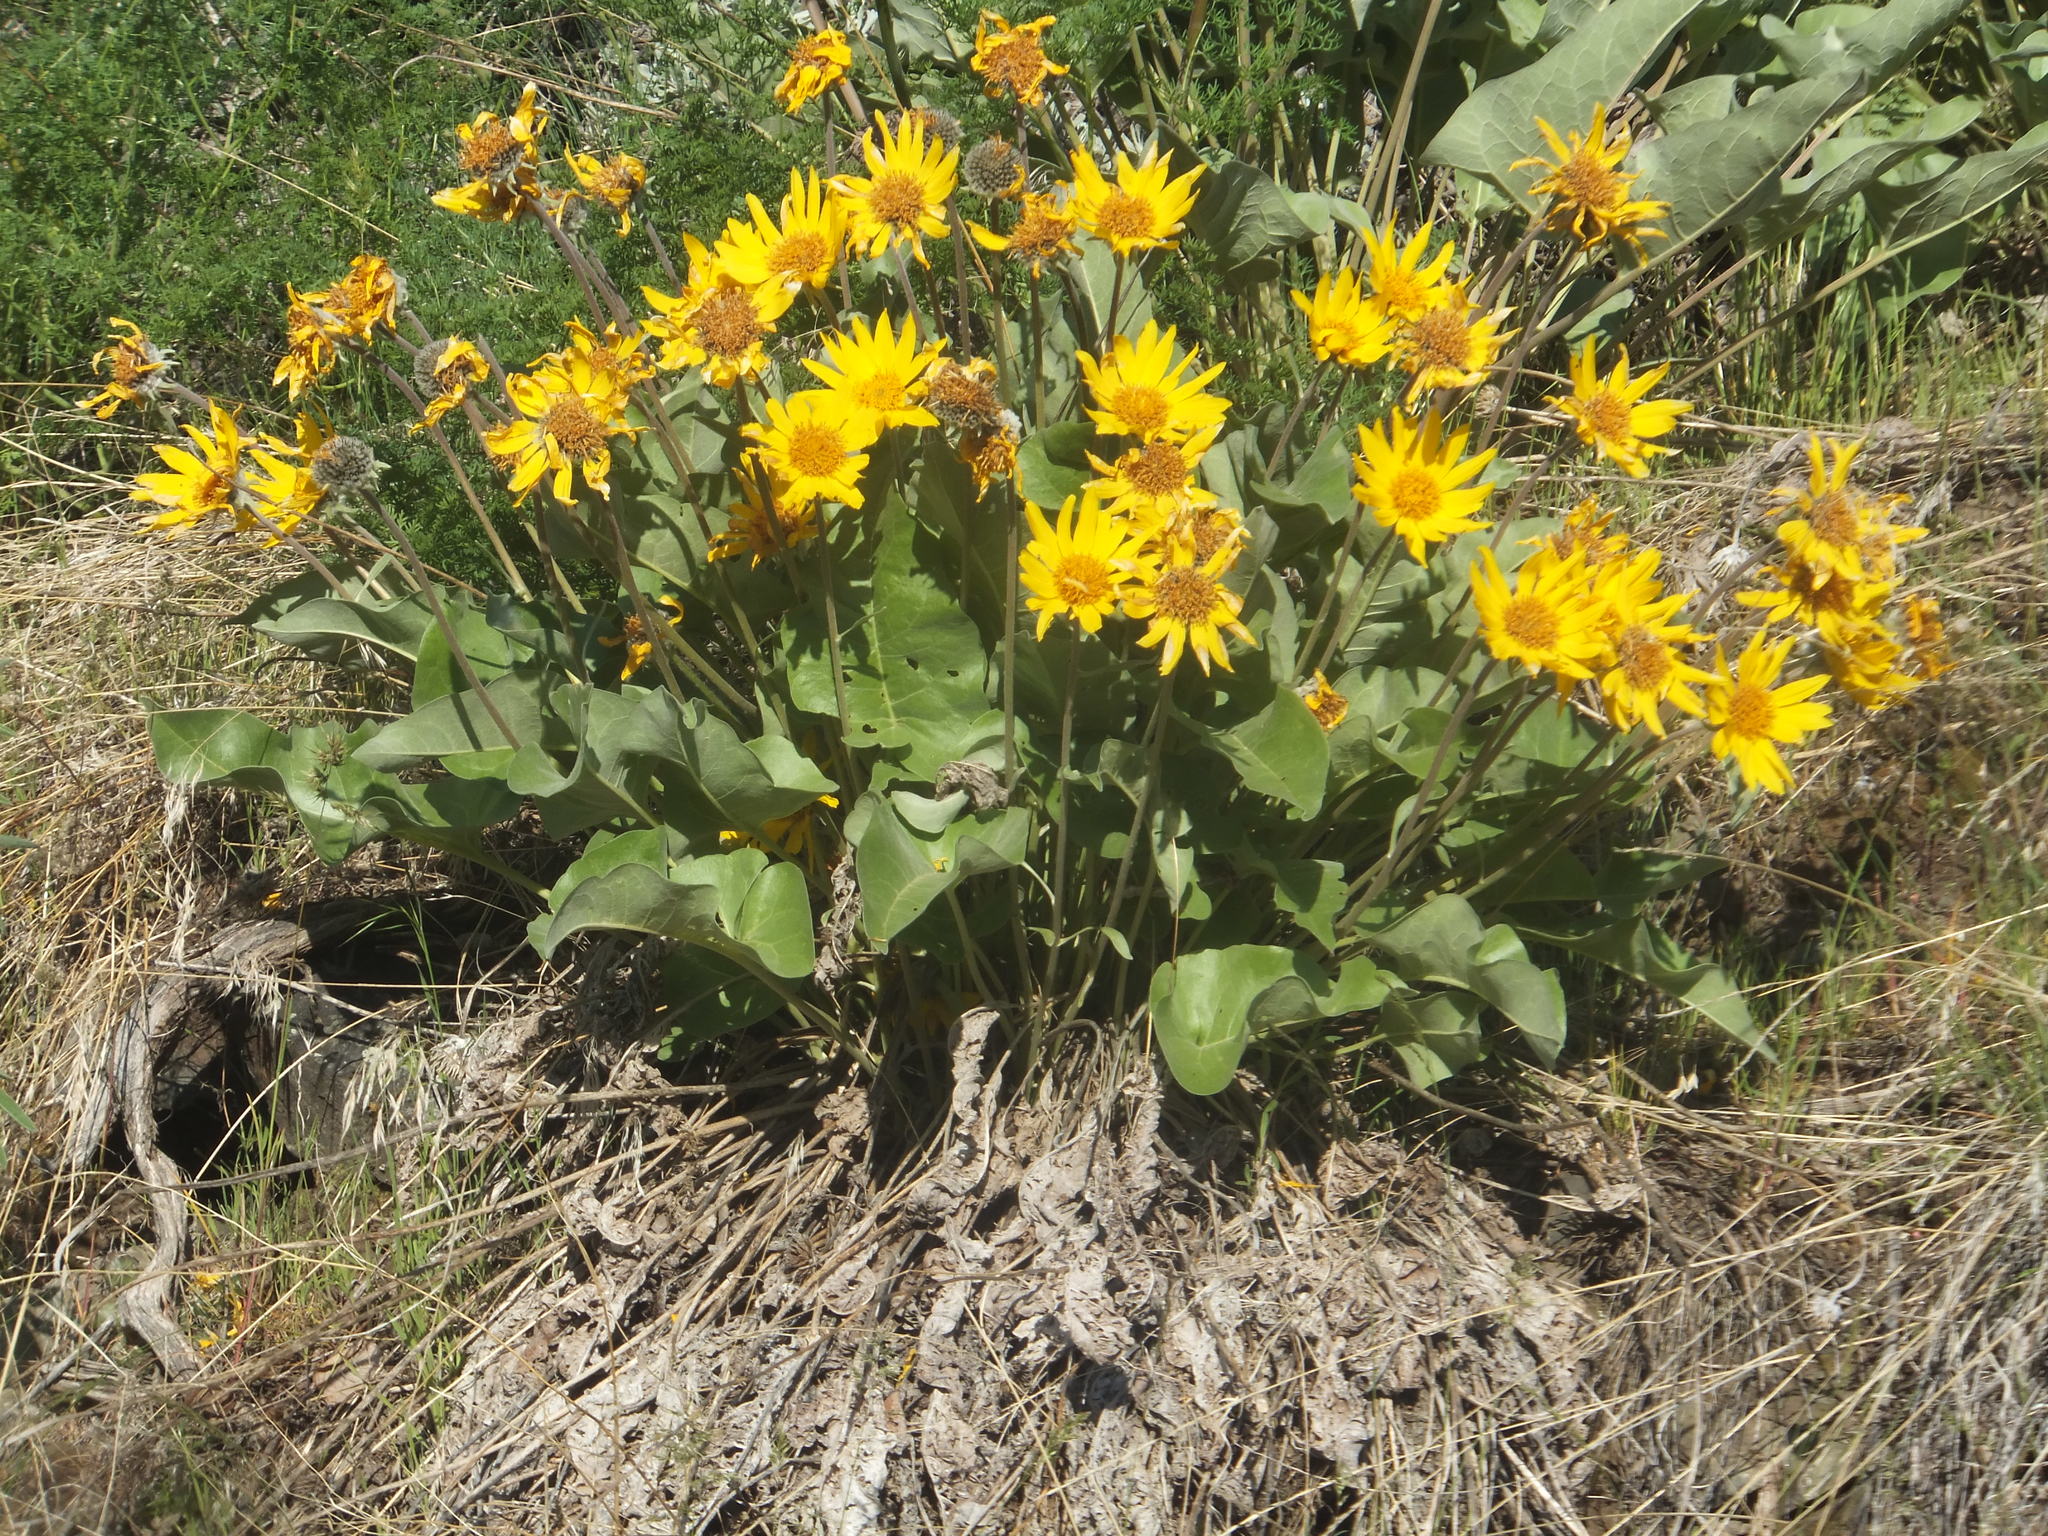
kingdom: Plantae
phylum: Tracheophyta
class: Magnoliopsida
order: Asterales
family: Asteraceae
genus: Wyethia
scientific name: Wyethia sagittata
